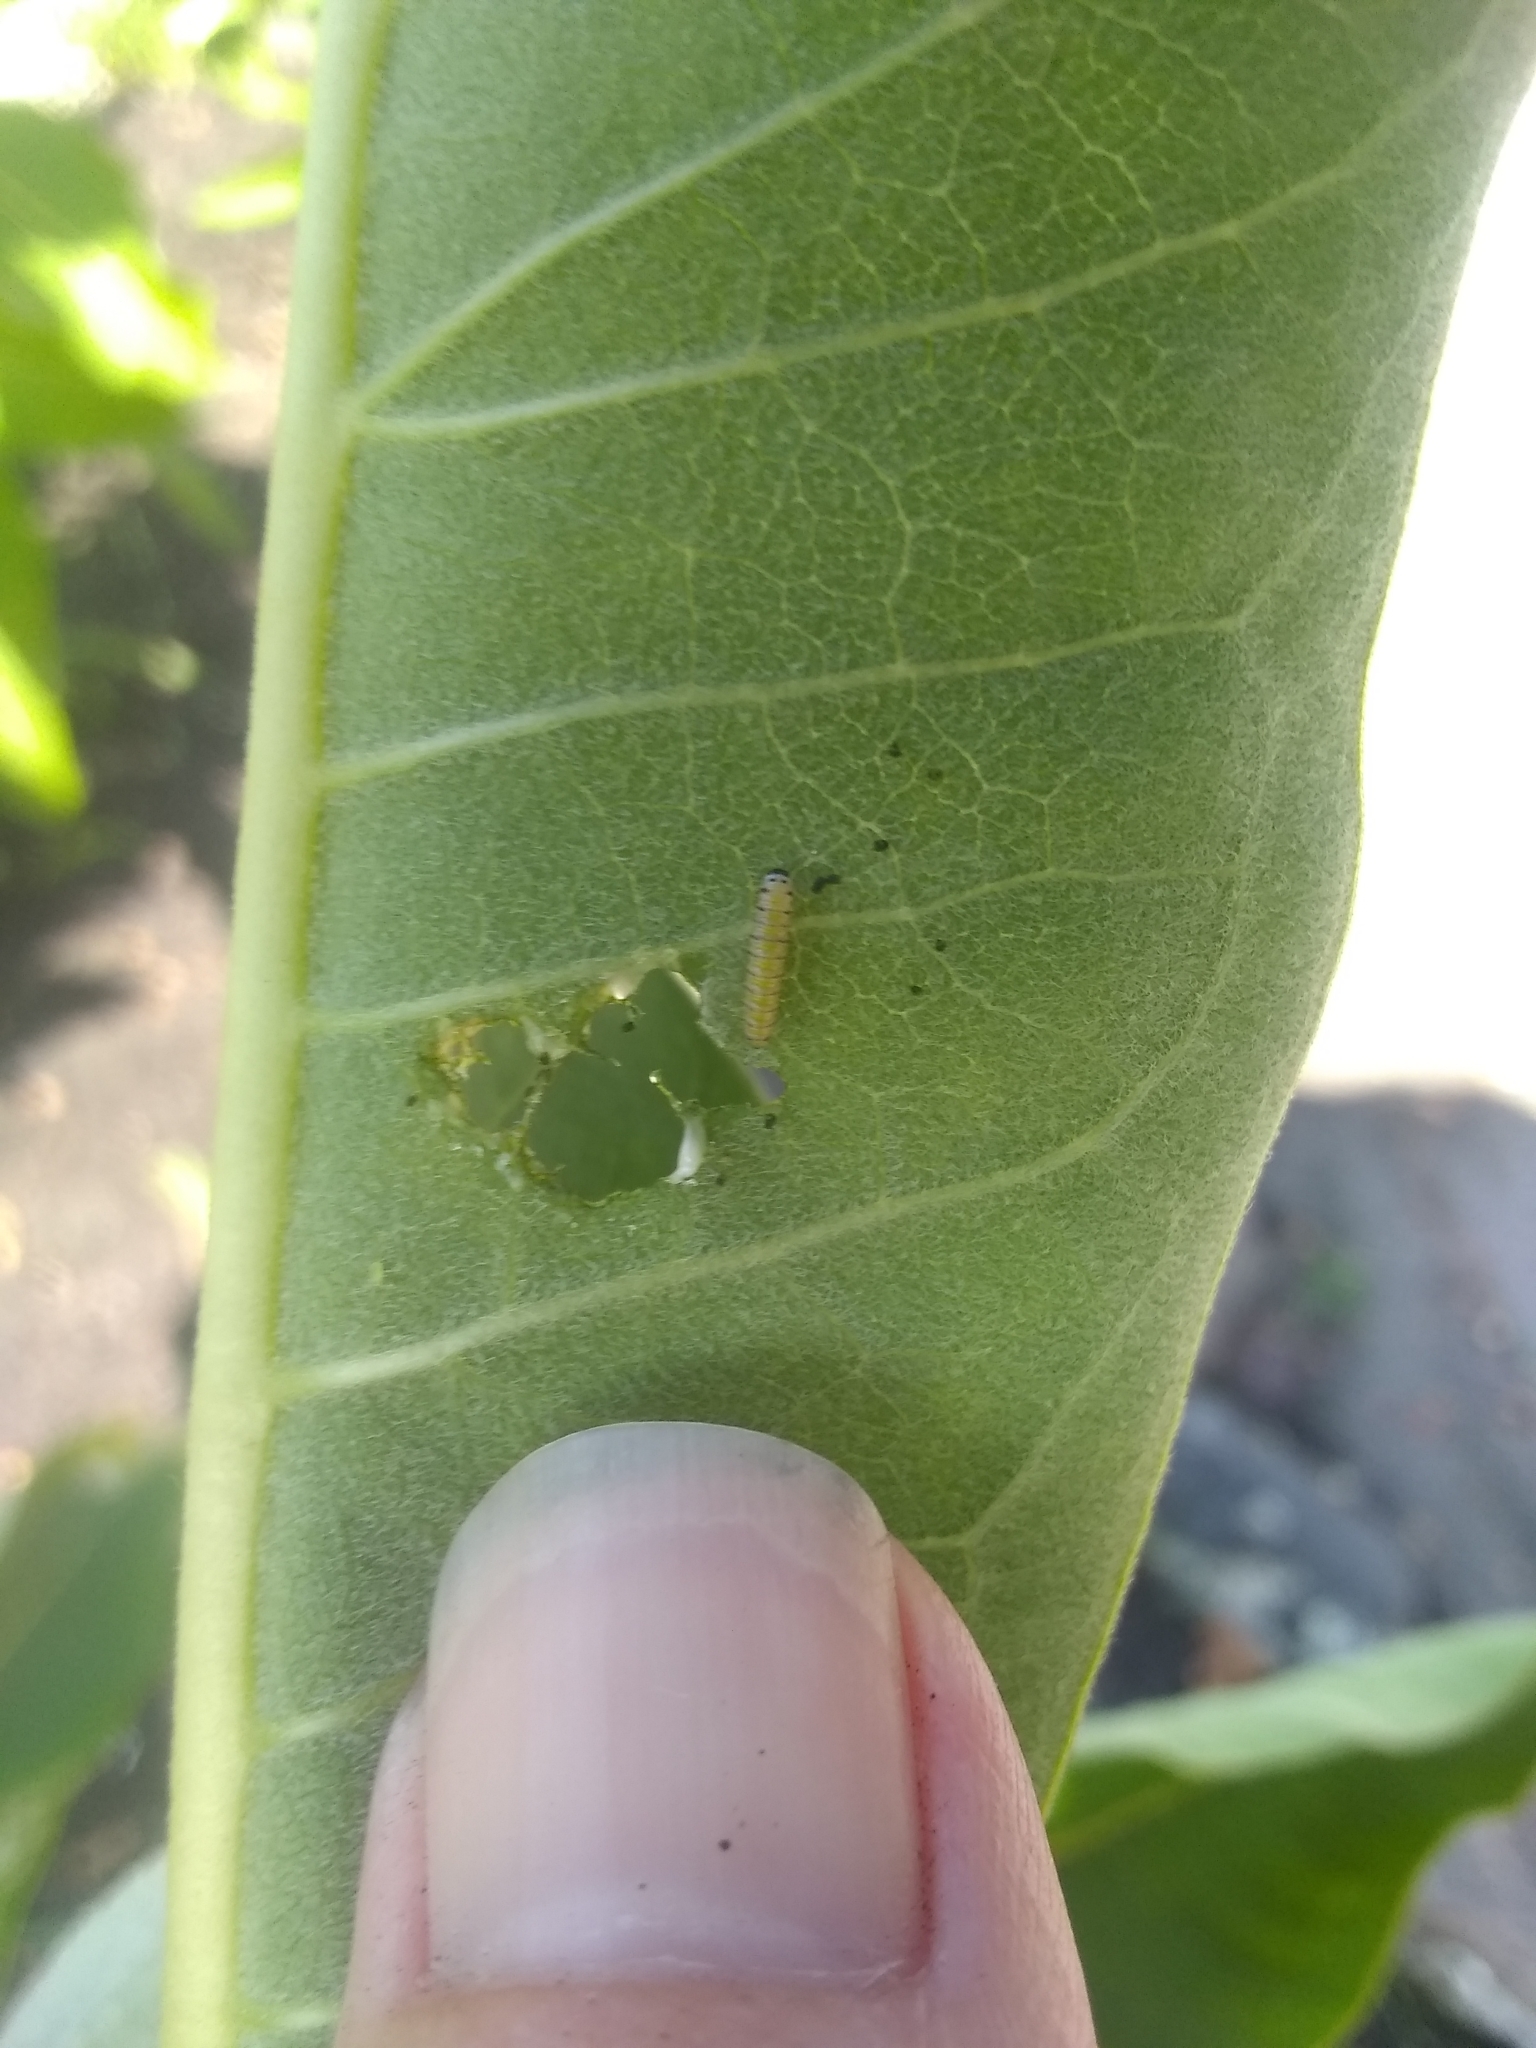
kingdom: Animalia
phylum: Arthropoda
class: Insecta
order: Lepidoptera
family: Nymphalidae
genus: Danaus
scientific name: Danaus plexippus
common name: Monarch
